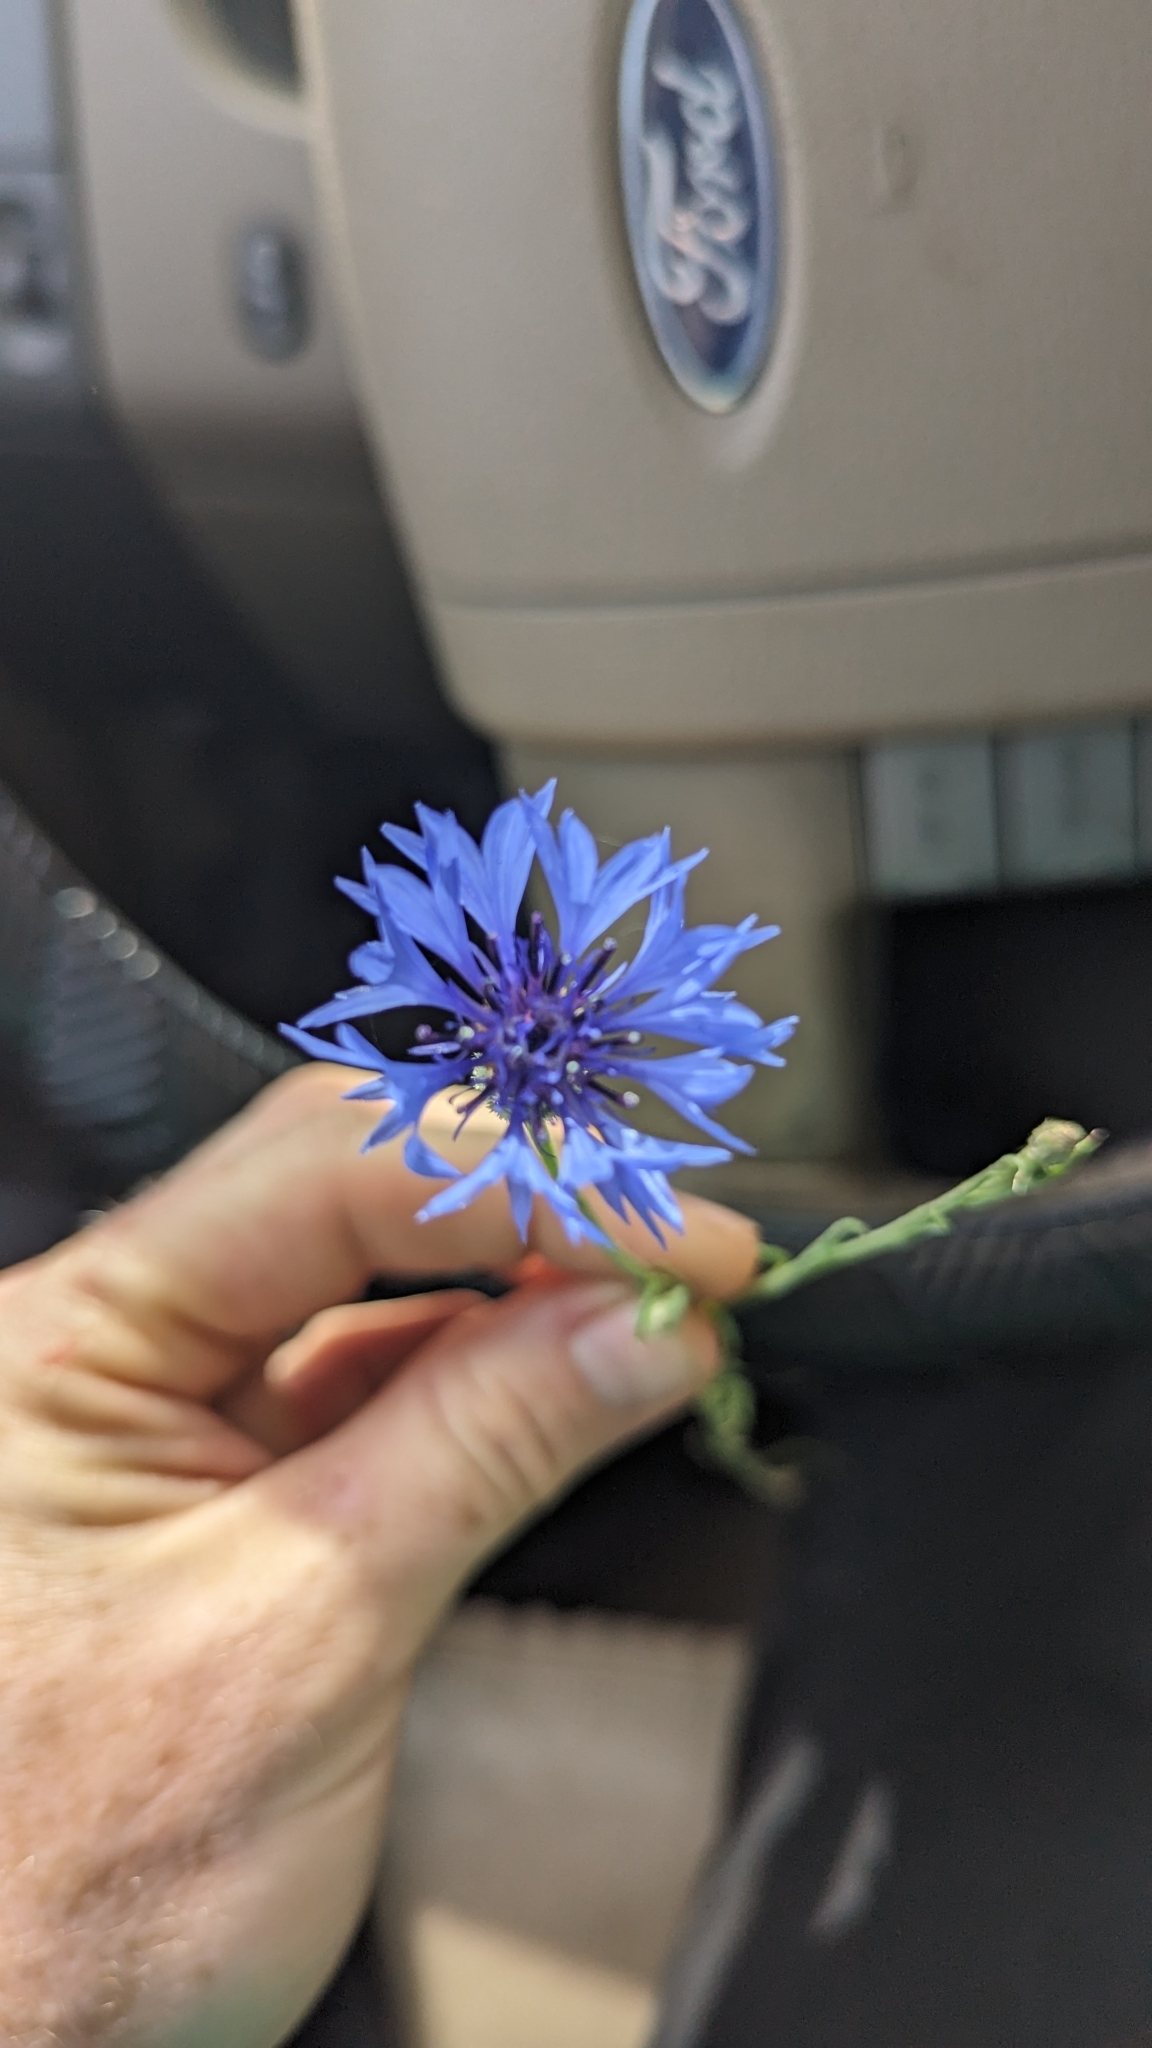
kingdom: Plantae
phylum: Tracheophyta
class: Magnoliopsida
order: Asterales
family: Asteraceae
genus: Centaurea
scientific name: Centaurea cyanus
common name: Cornflower
